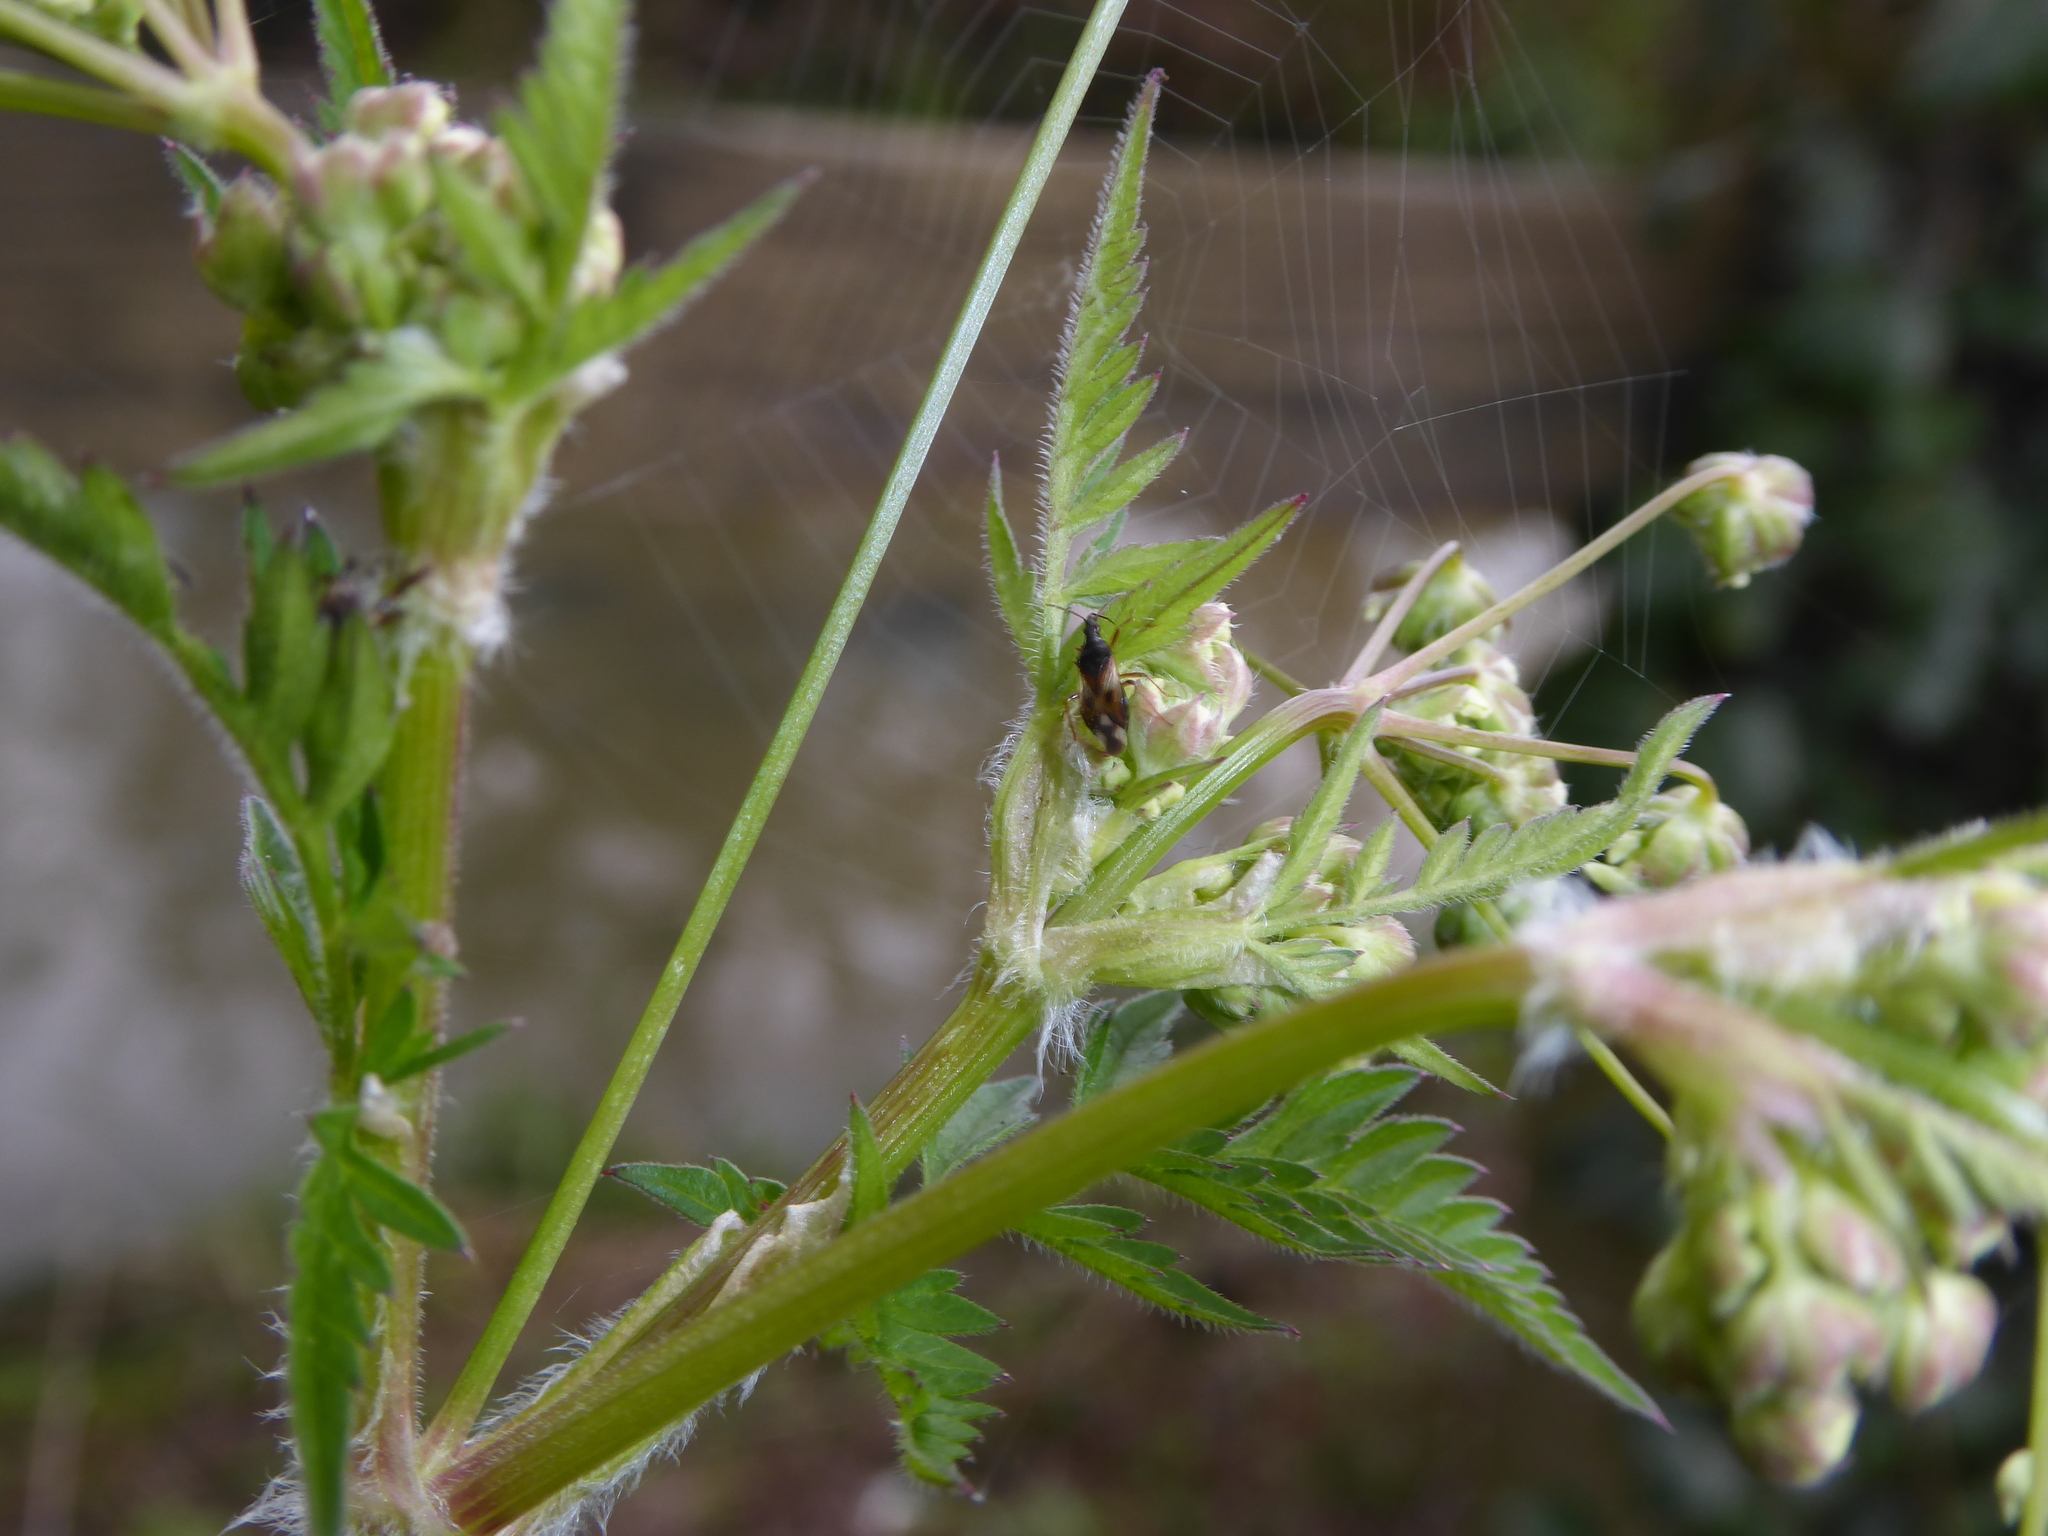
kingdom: Animalia
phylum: Arthropoda
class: Insecta
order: Hemiptera
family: Anthocoridae
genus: Anthocoris
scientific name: Anthocoris nemorum
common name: Minute pirate bug
